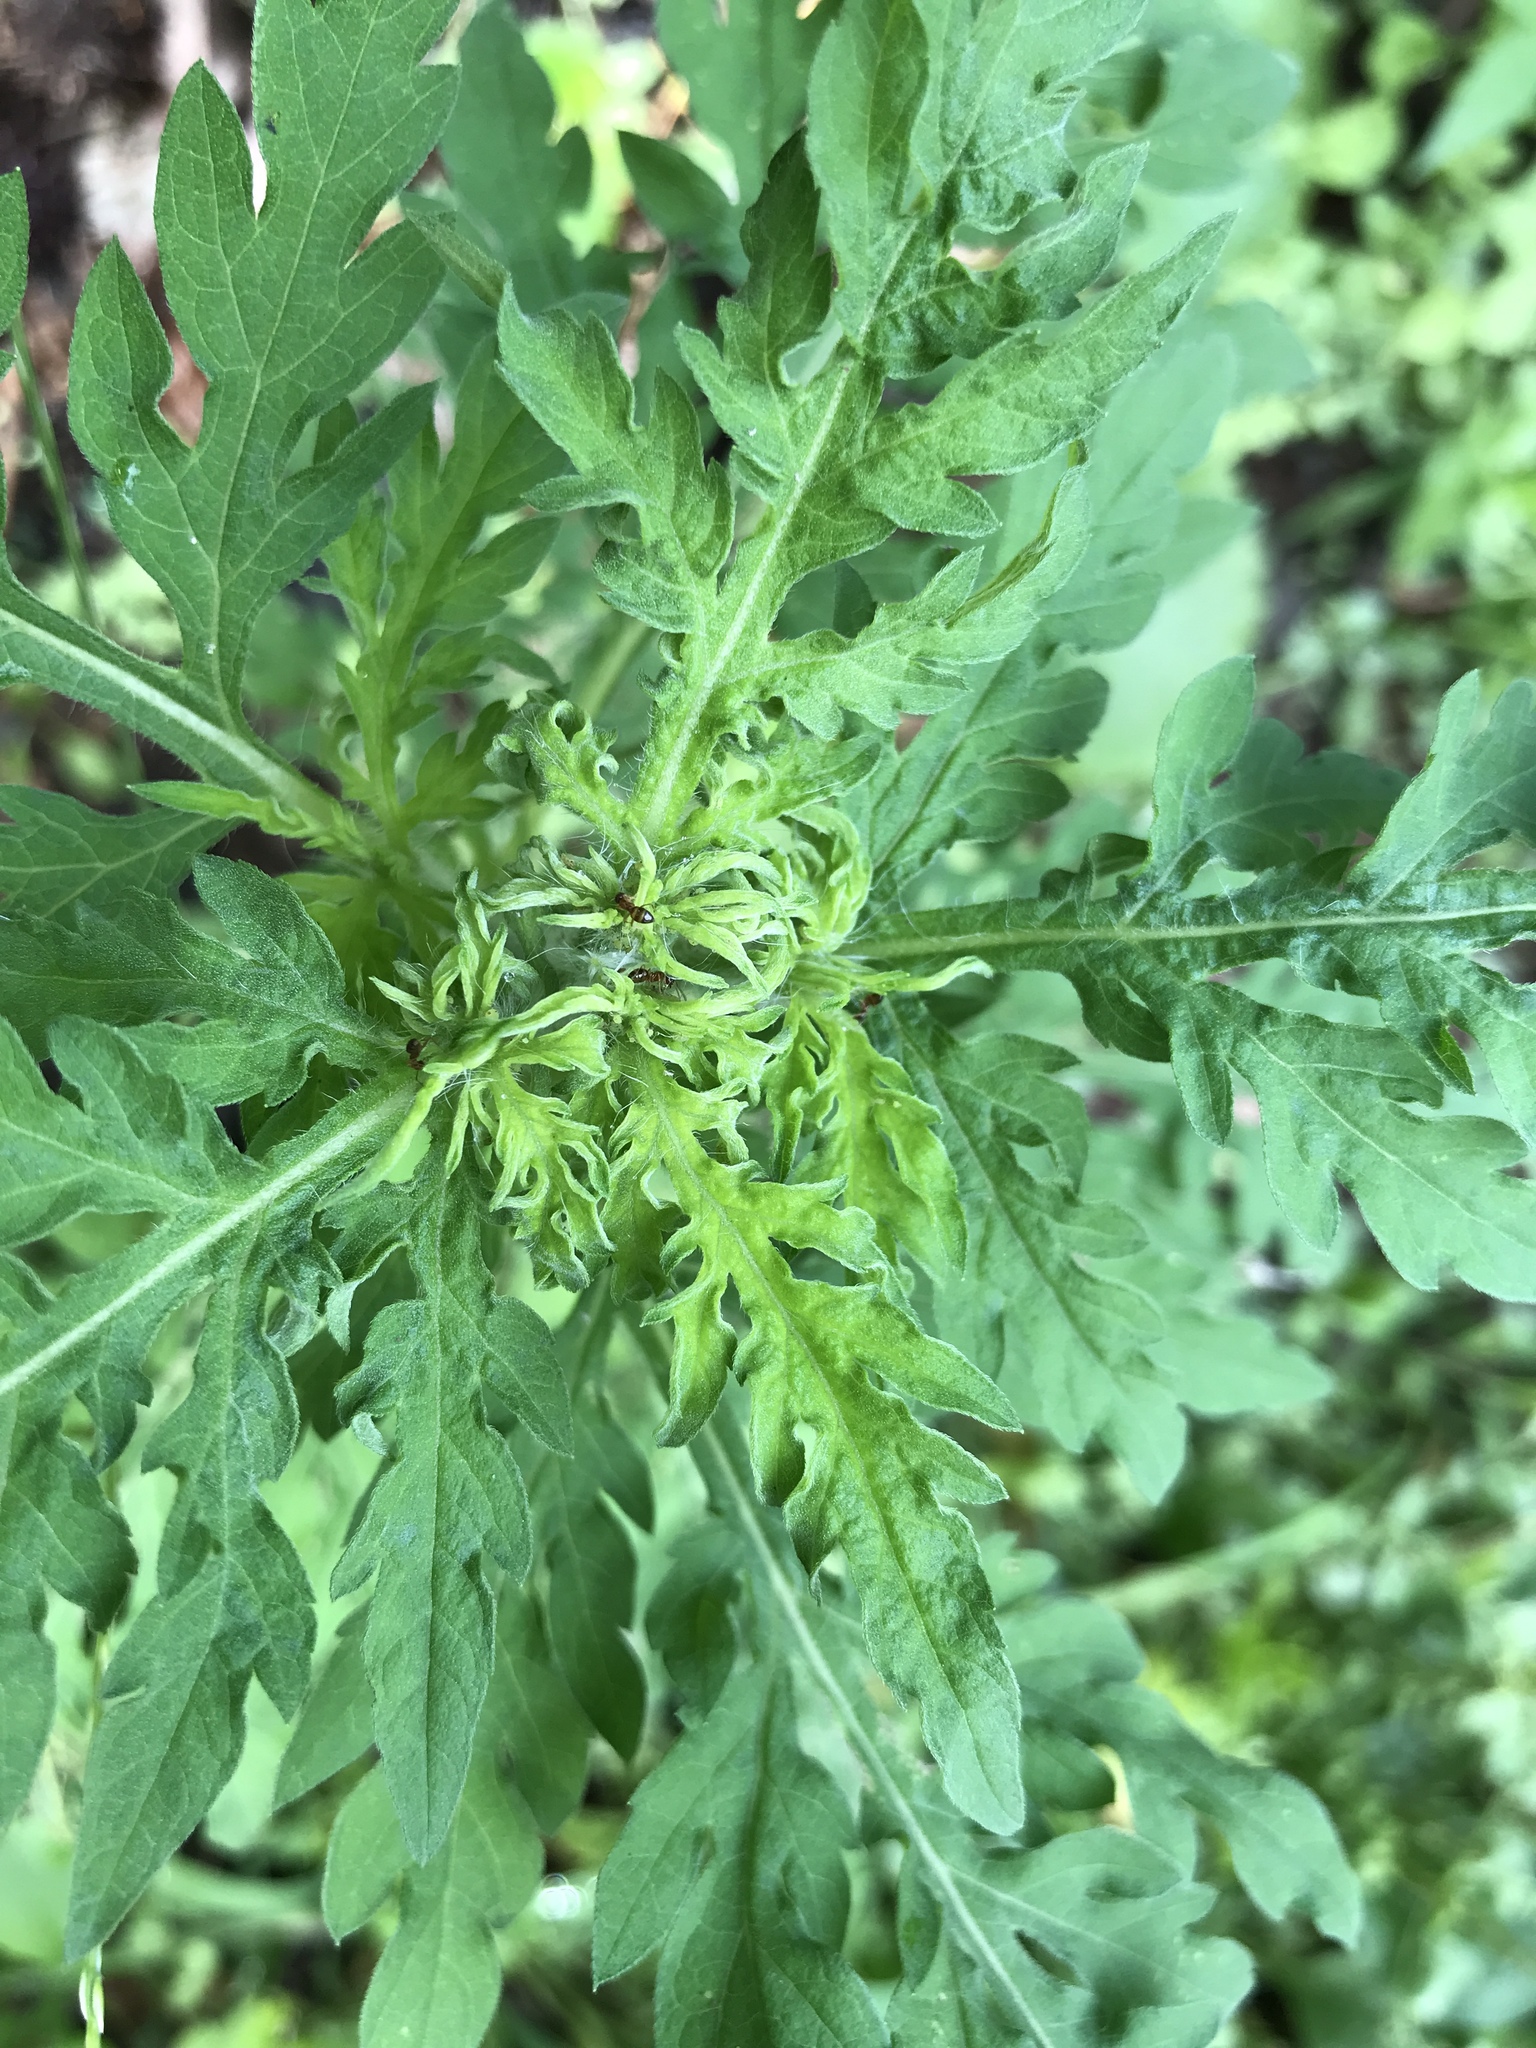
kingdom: Plantae
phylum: Tracheophyta
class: Magnoliopsida
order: Asterales
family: Asteraceae
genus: Ambrosia
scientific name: Ambrosia artemisiifolia
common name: Annual ragweed
